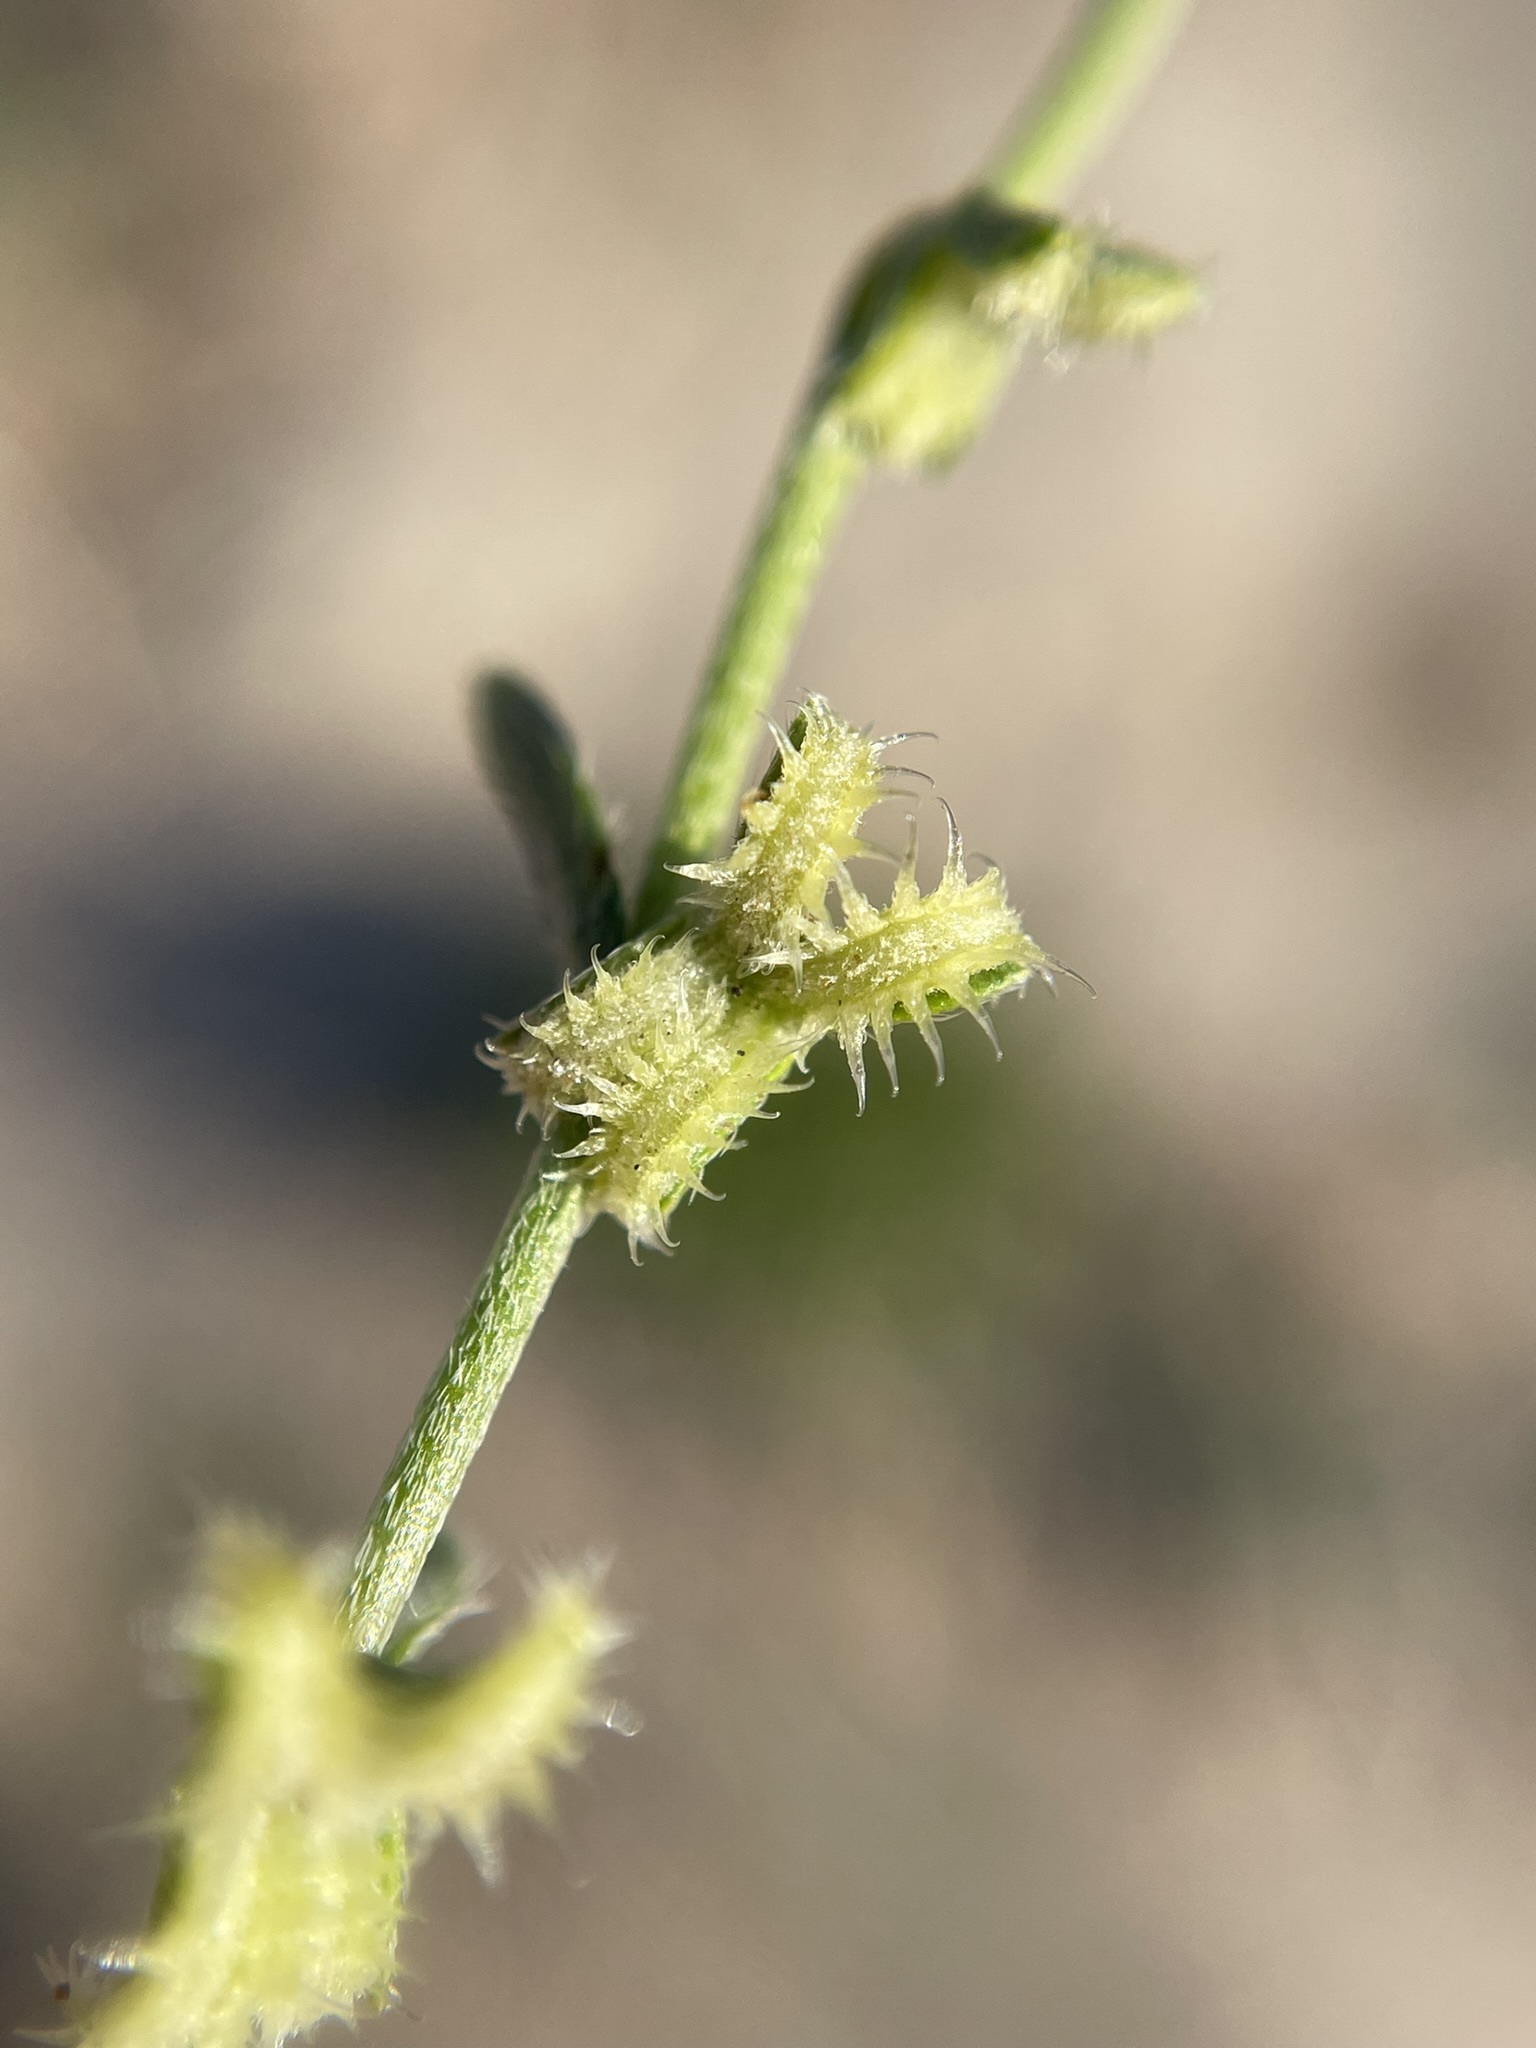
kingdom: Plantae
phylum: Tracheophyta
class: Magnoliopsida
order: Boraginales
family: Boraginaceae
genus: Pectocarya
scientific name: Pectocarya recurvata
